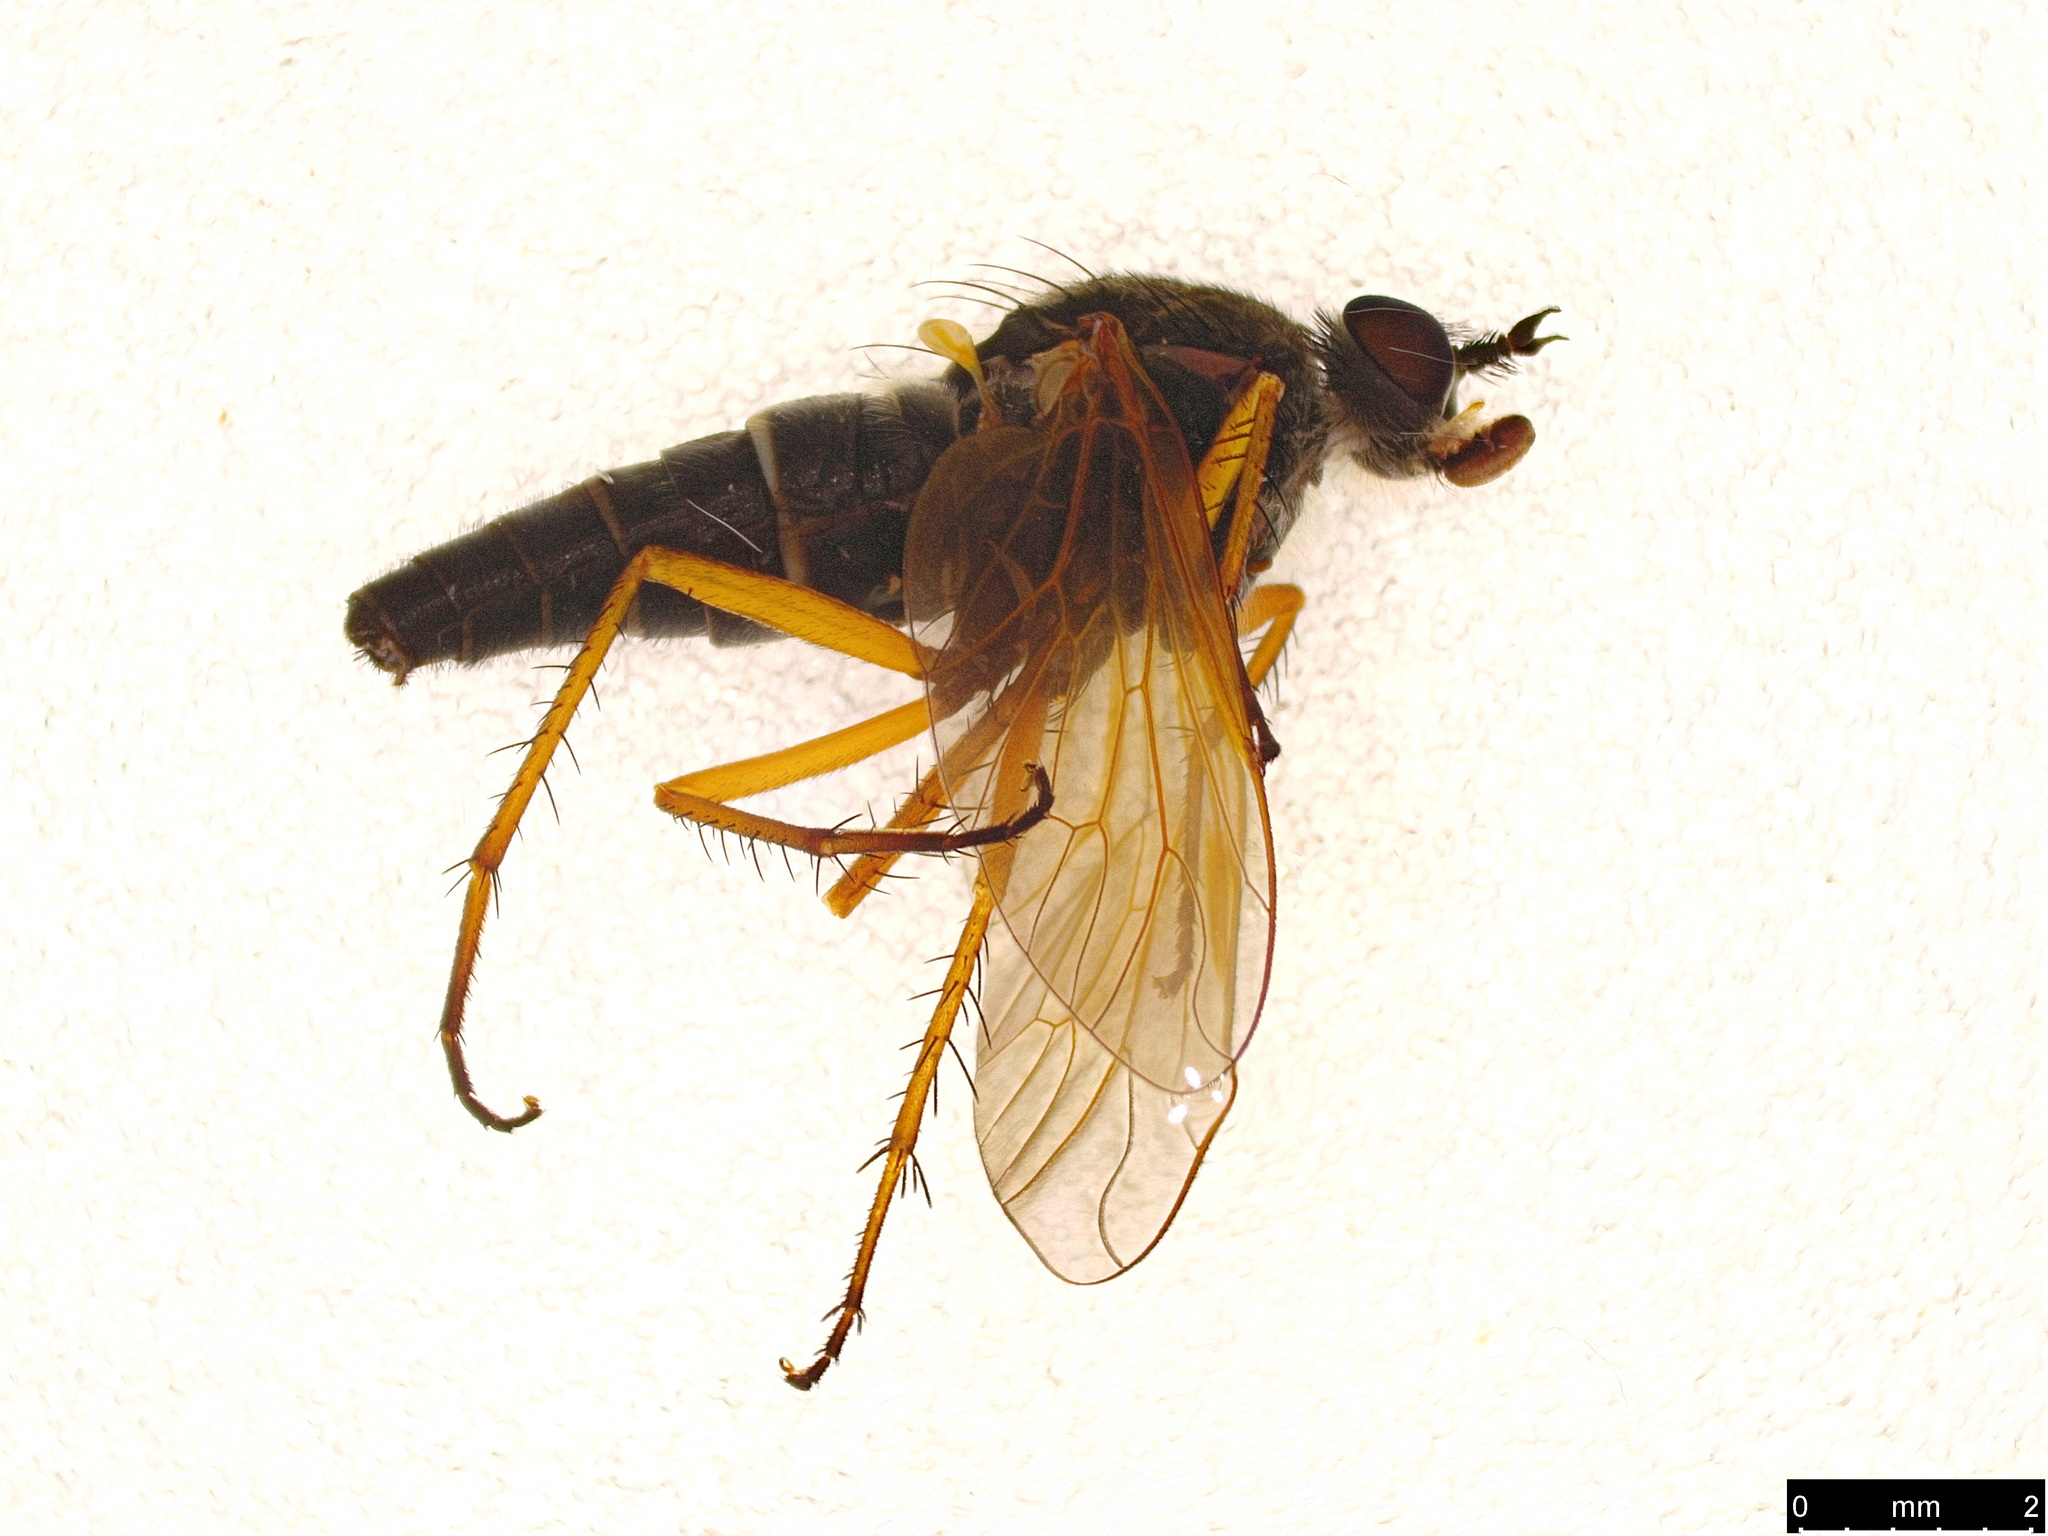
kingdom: Animalia
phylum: Arthropoda
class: Insecta
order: Diptera
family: Therevidae
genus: Anabarhynchus
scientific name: Anabarhynchus kosciuskoensis
